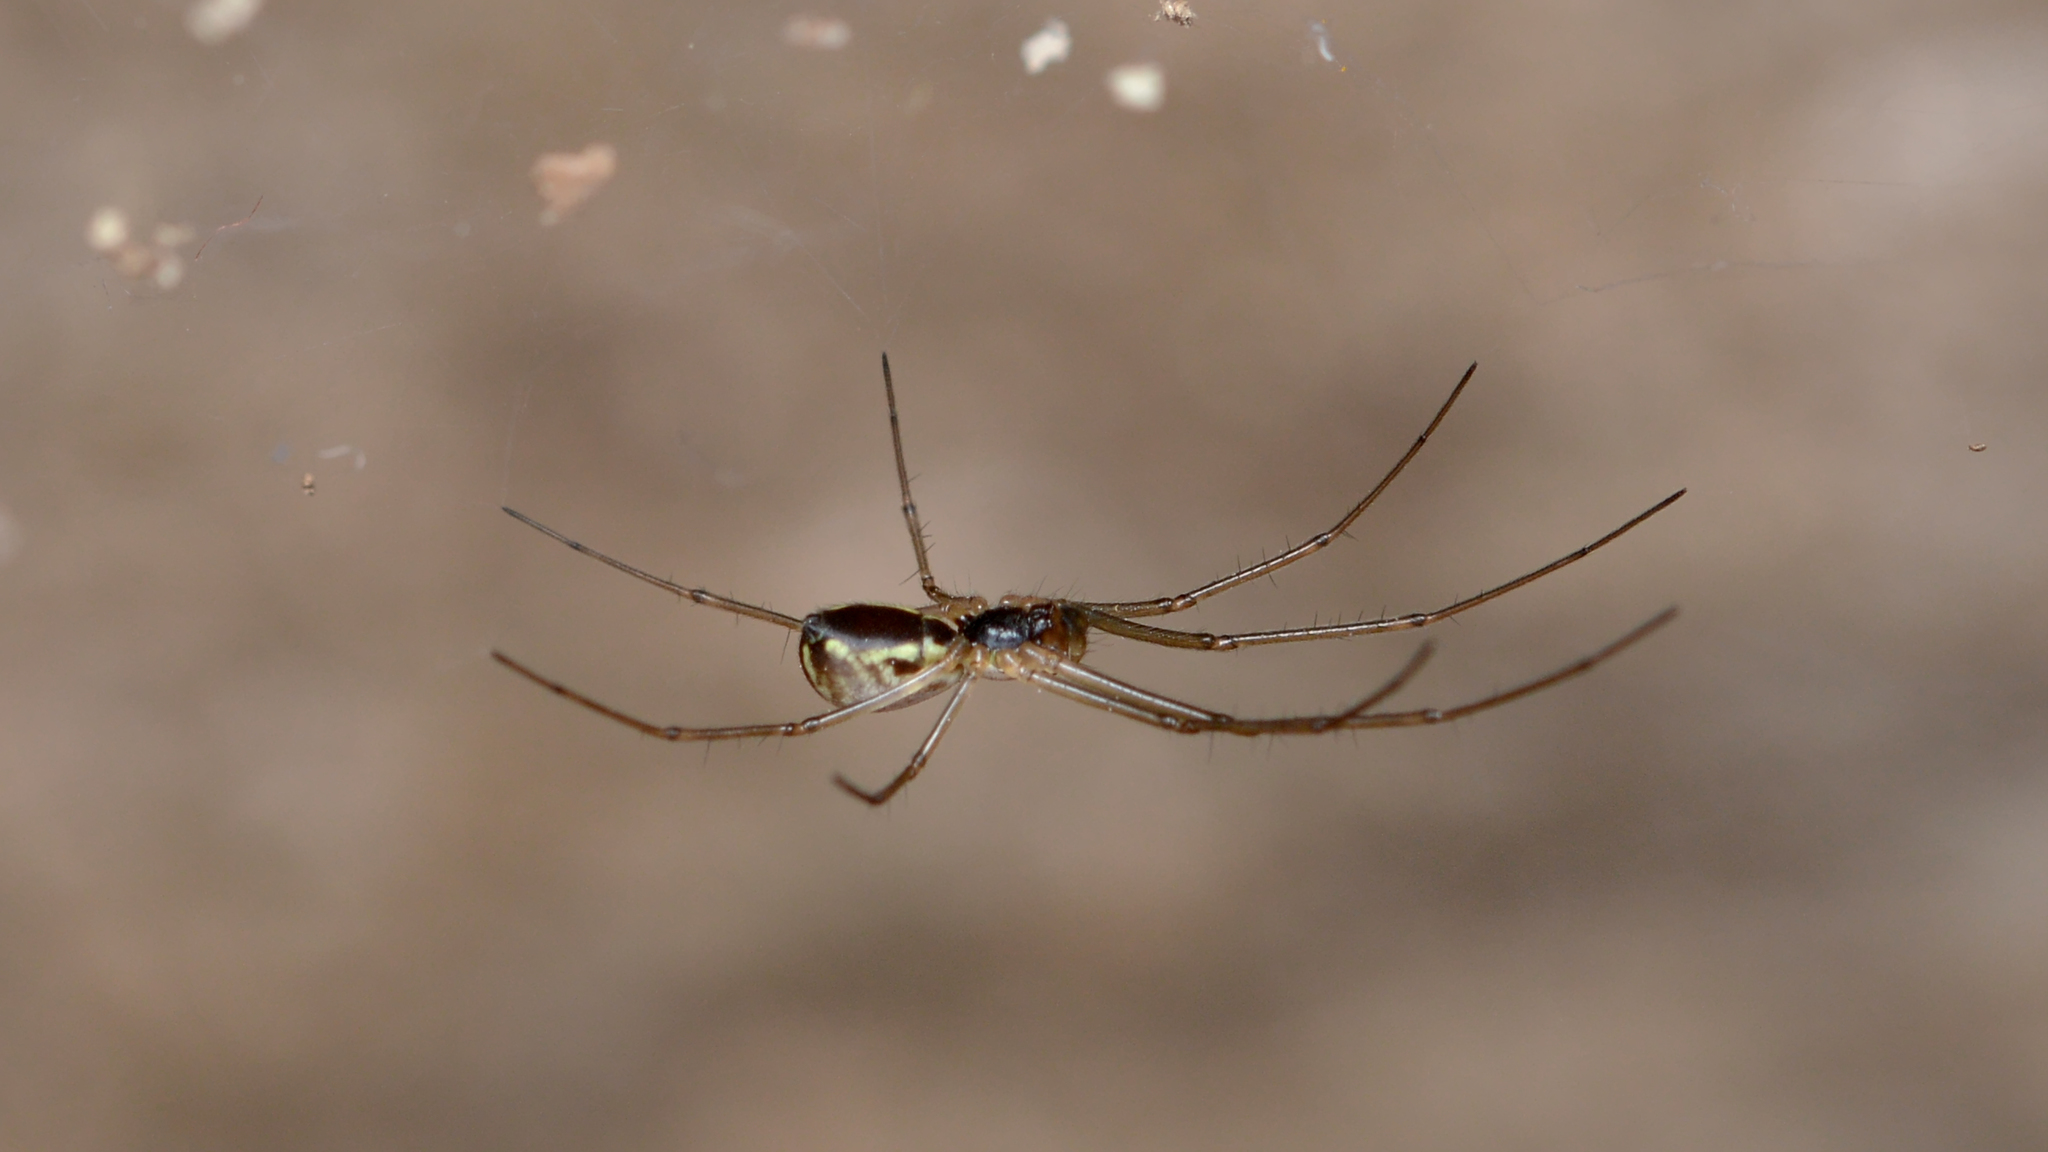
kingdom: Animalia
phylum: Arthropoda
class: Arachnida
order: Araneae
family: Linyphiidae
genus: Neriene
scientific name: Neriene radiata
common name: Filmy dome spider
